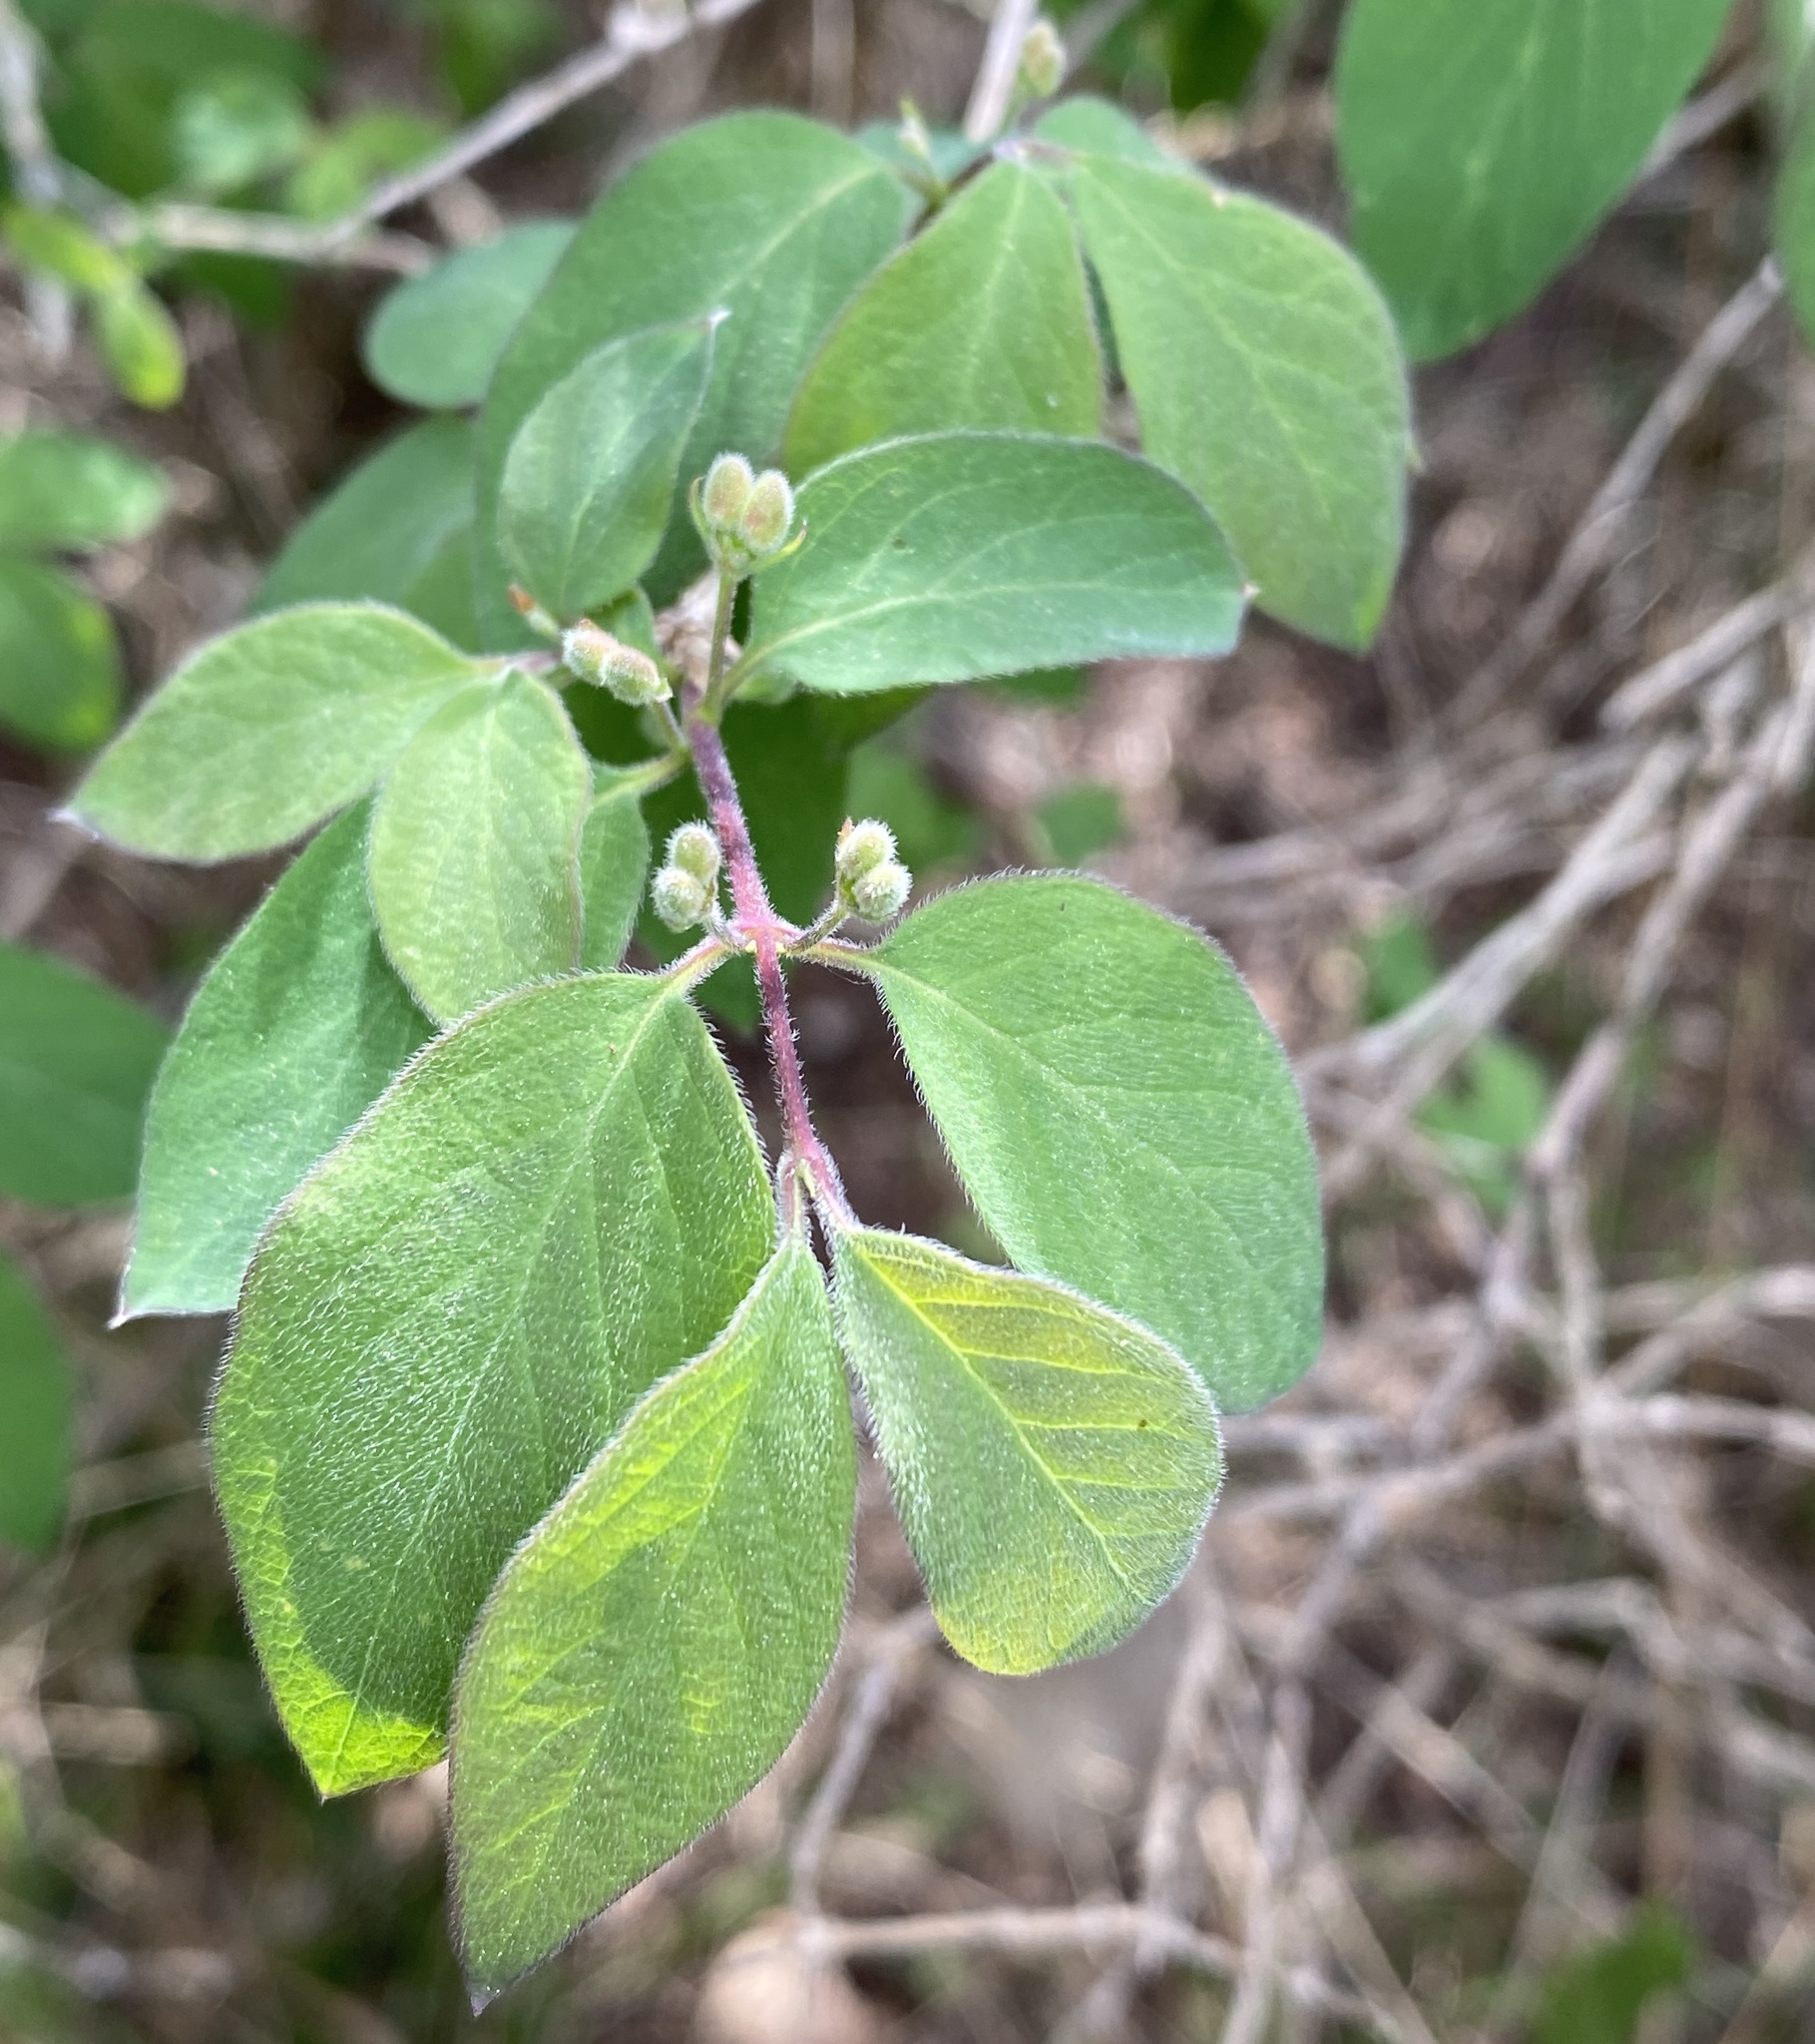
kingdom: Plantae
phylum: Tracheophyta
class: Magnoliopsida
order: Dipsacales
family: Caprifoliaceae
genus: Lonicera
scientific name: Lonicera xylosteum
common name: Fly honeysuckle
